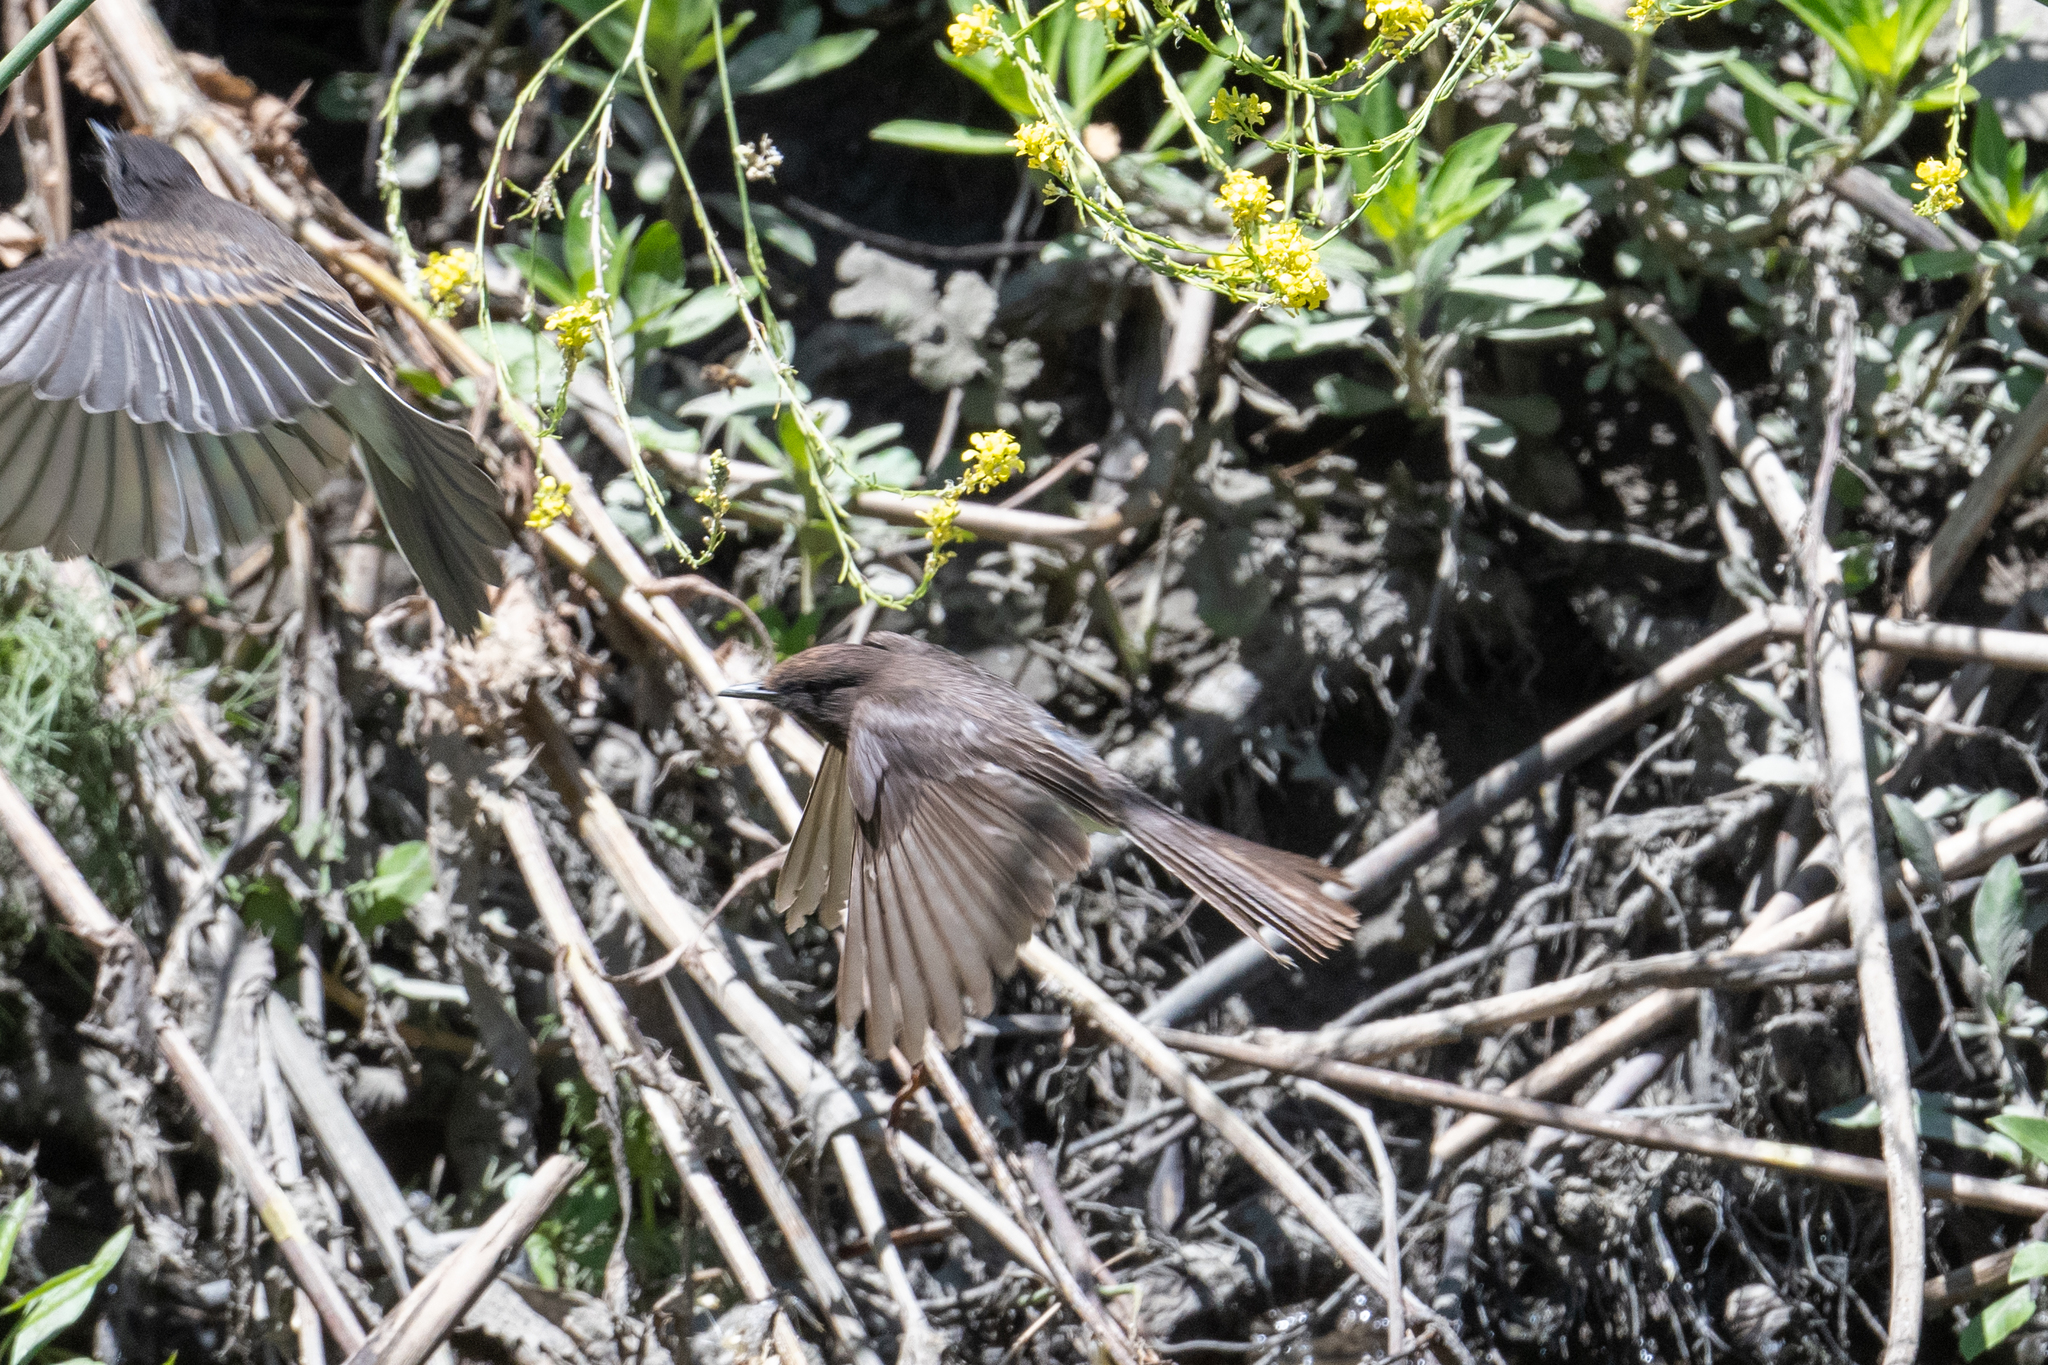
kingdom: Animalia
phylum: Chordata
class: Aves
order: Passeriformes
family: Tyrannidae
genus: Sayornis
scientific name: Sayornis nigricans
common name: Black phoebe
